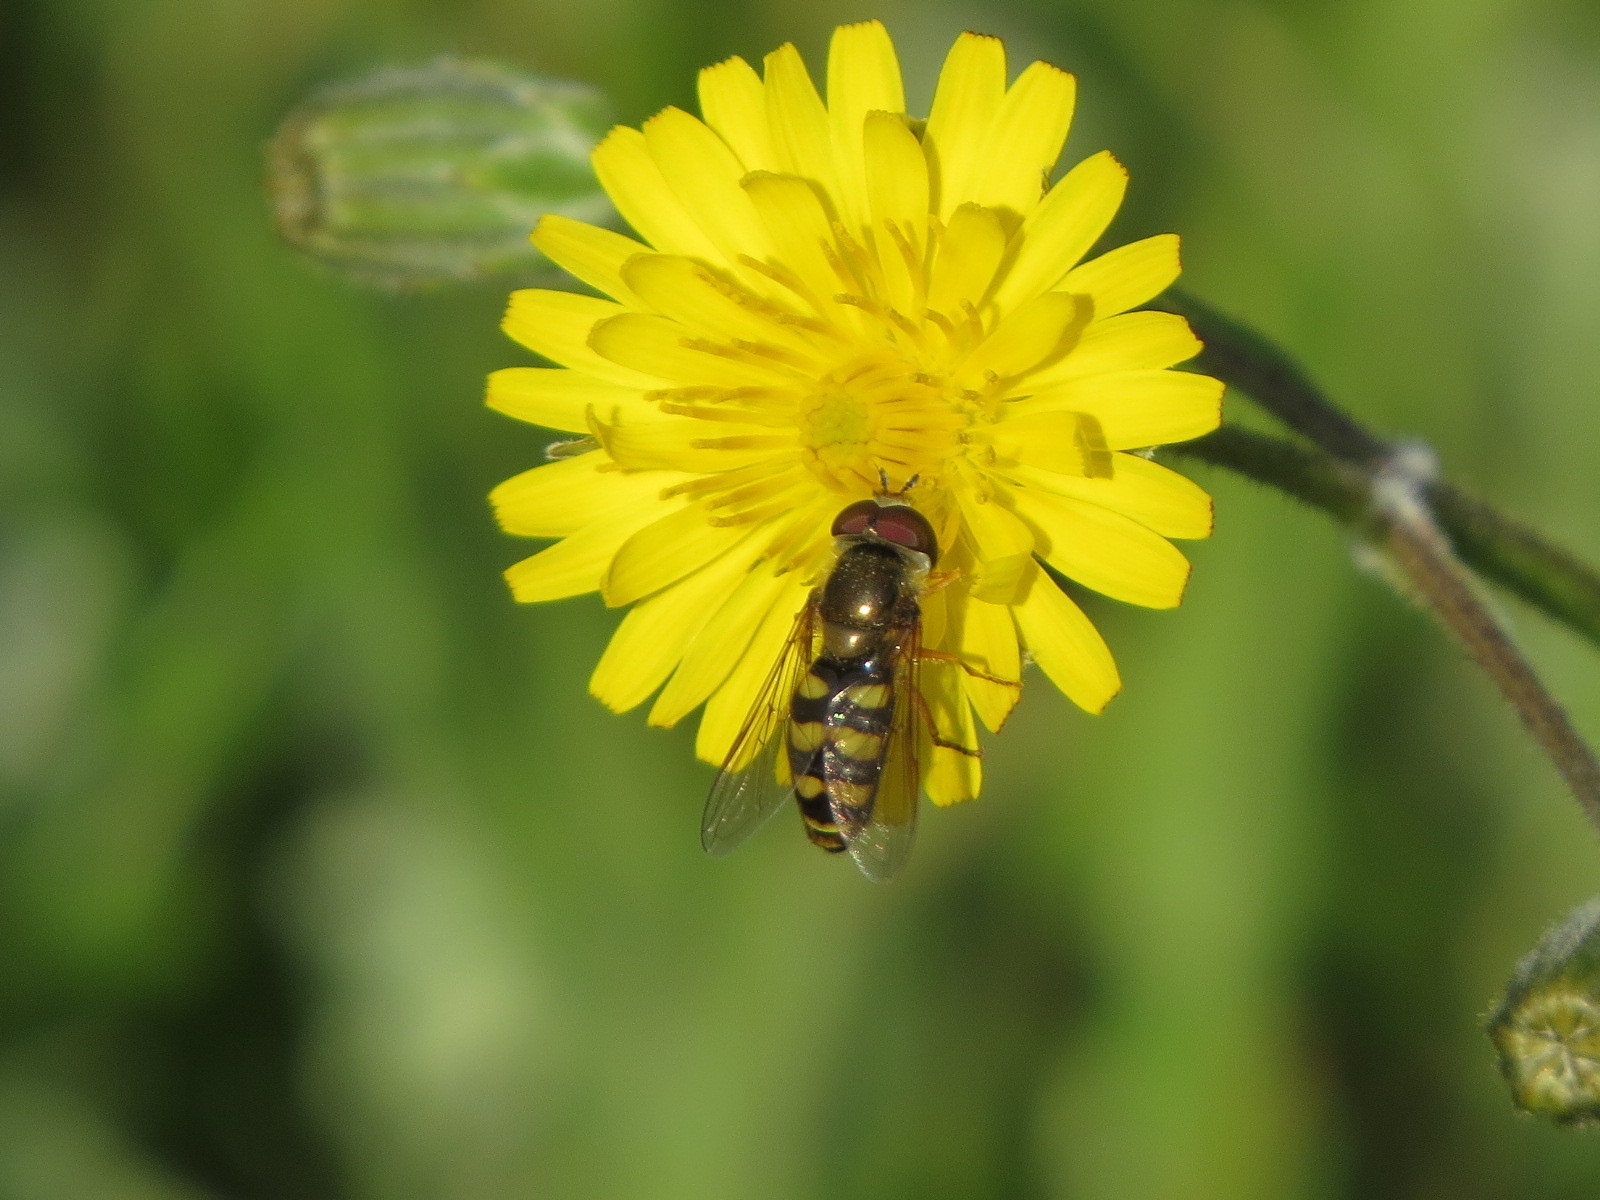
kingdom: Animalia
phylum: Arthropoda
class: Insecta
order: Diptera
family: Syrphidae
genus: Eupeodes
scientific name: Eupeodes fumipennis
